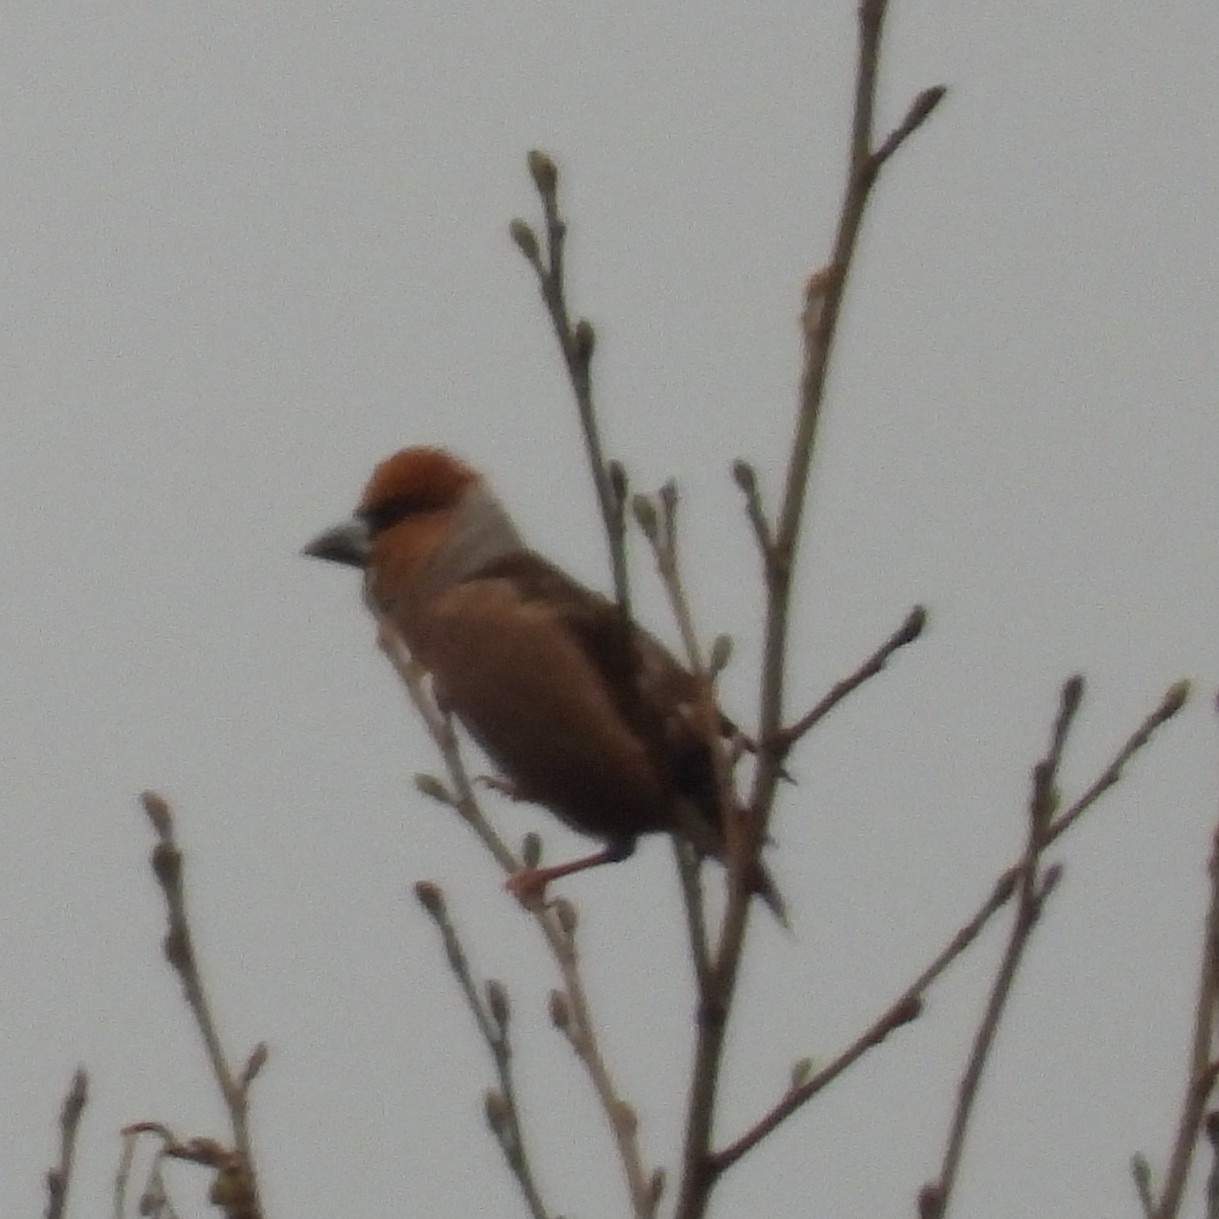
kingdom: Animalia
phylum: Chordata
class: Aves
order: Passeriformes
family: Fringillidae
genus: Coccothraustes
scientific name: Coccothraustes coccothraustes
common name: Hawfinch
